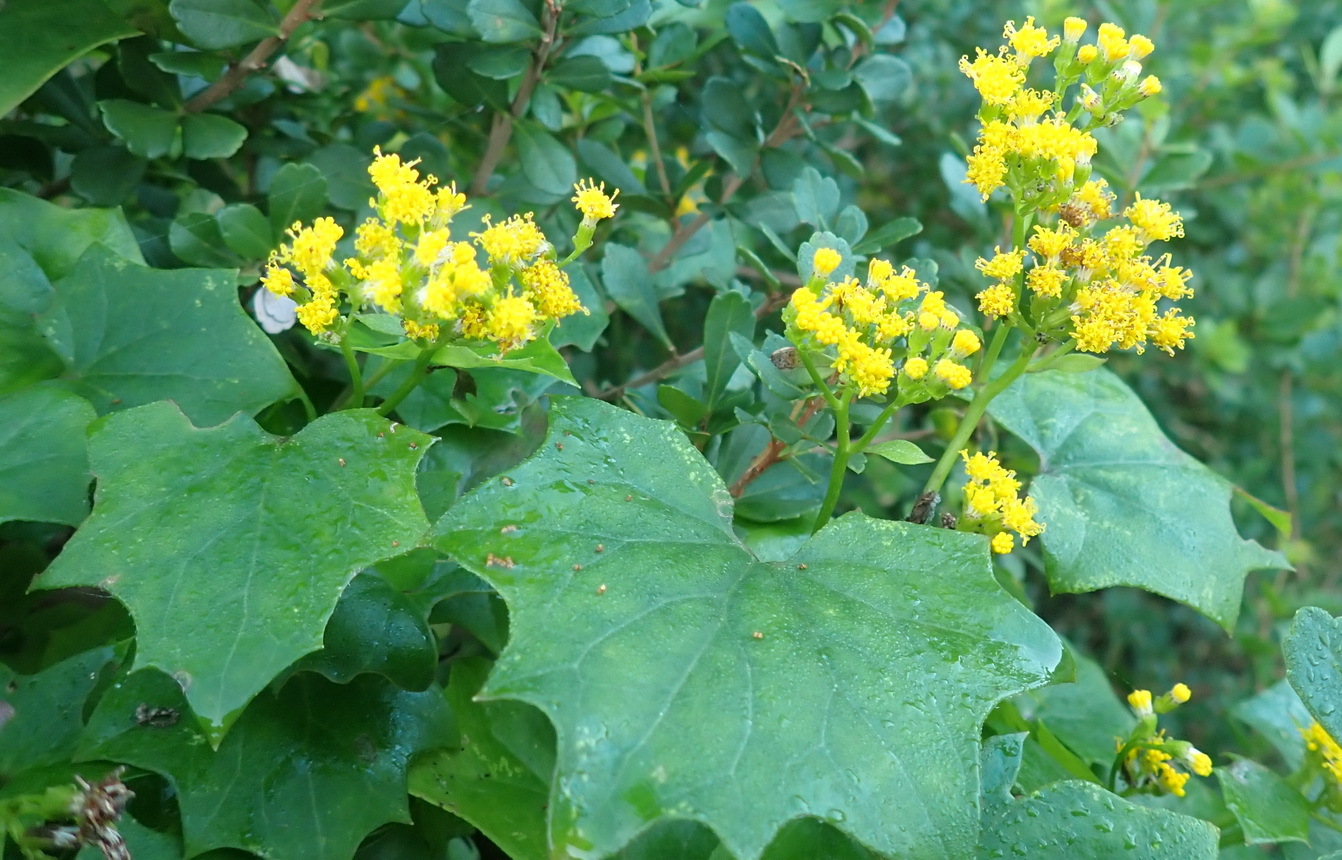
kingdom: Plantae
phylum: Tracheophyta
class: Magnoliopsida
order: Asterales
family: Asteraceae
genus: Delairea
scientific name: Delairea odorata
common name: Cape-ivy
